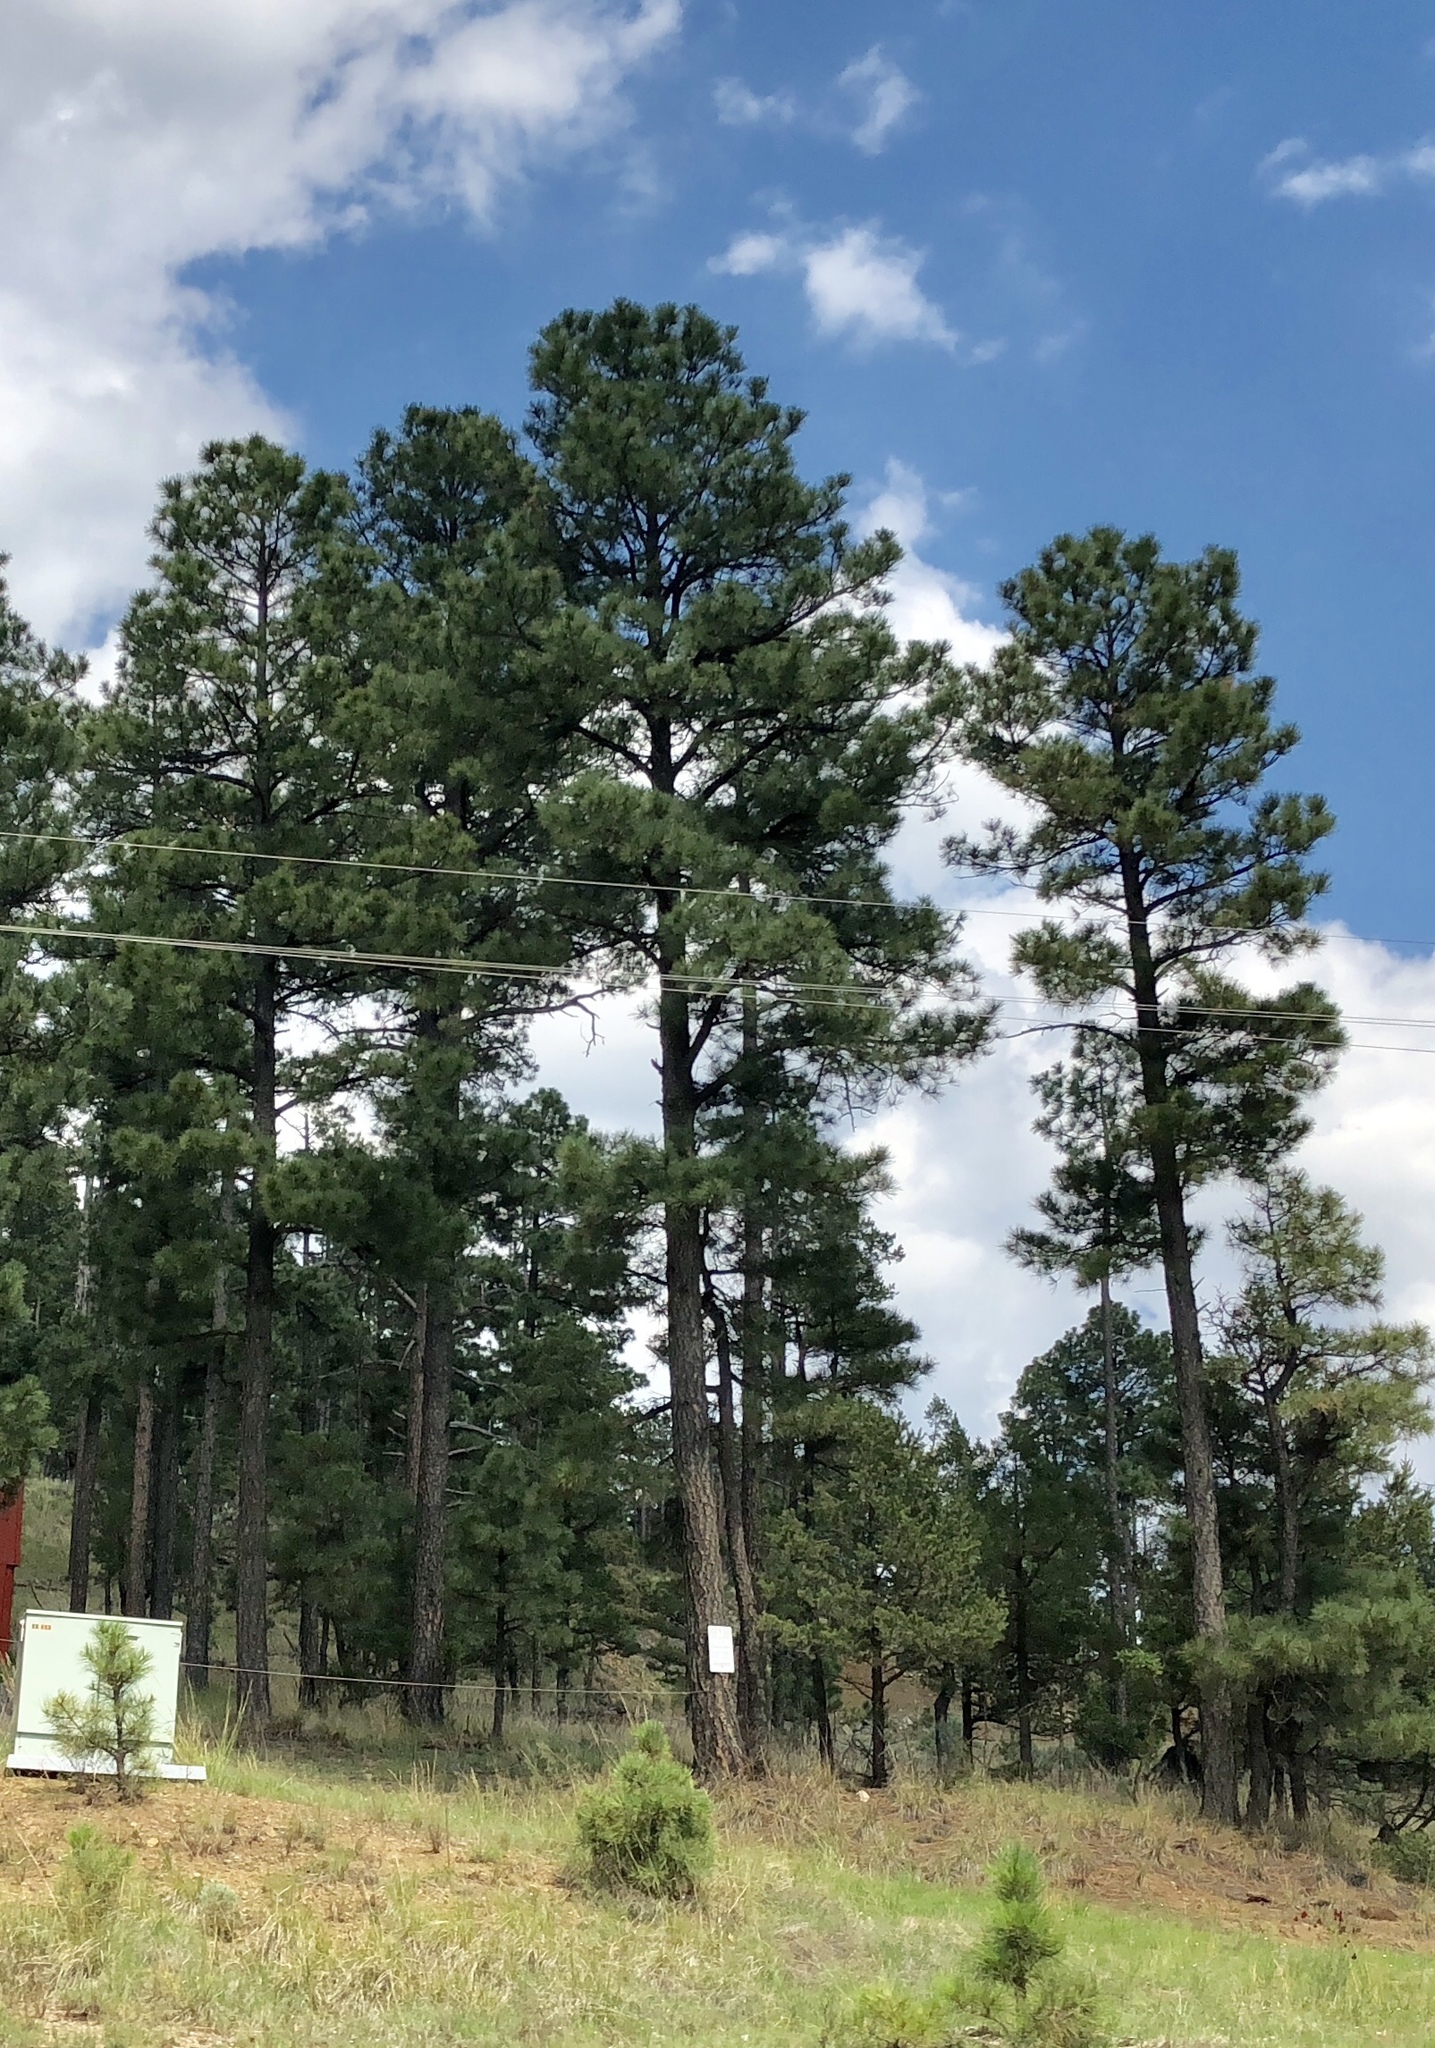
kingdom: Plantae
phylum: Tracheophyta
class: Pinopsida
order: Pinales
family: Pinaceae
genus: Pinus
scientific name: Pinus ponderosa
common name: Western yellow-pine
